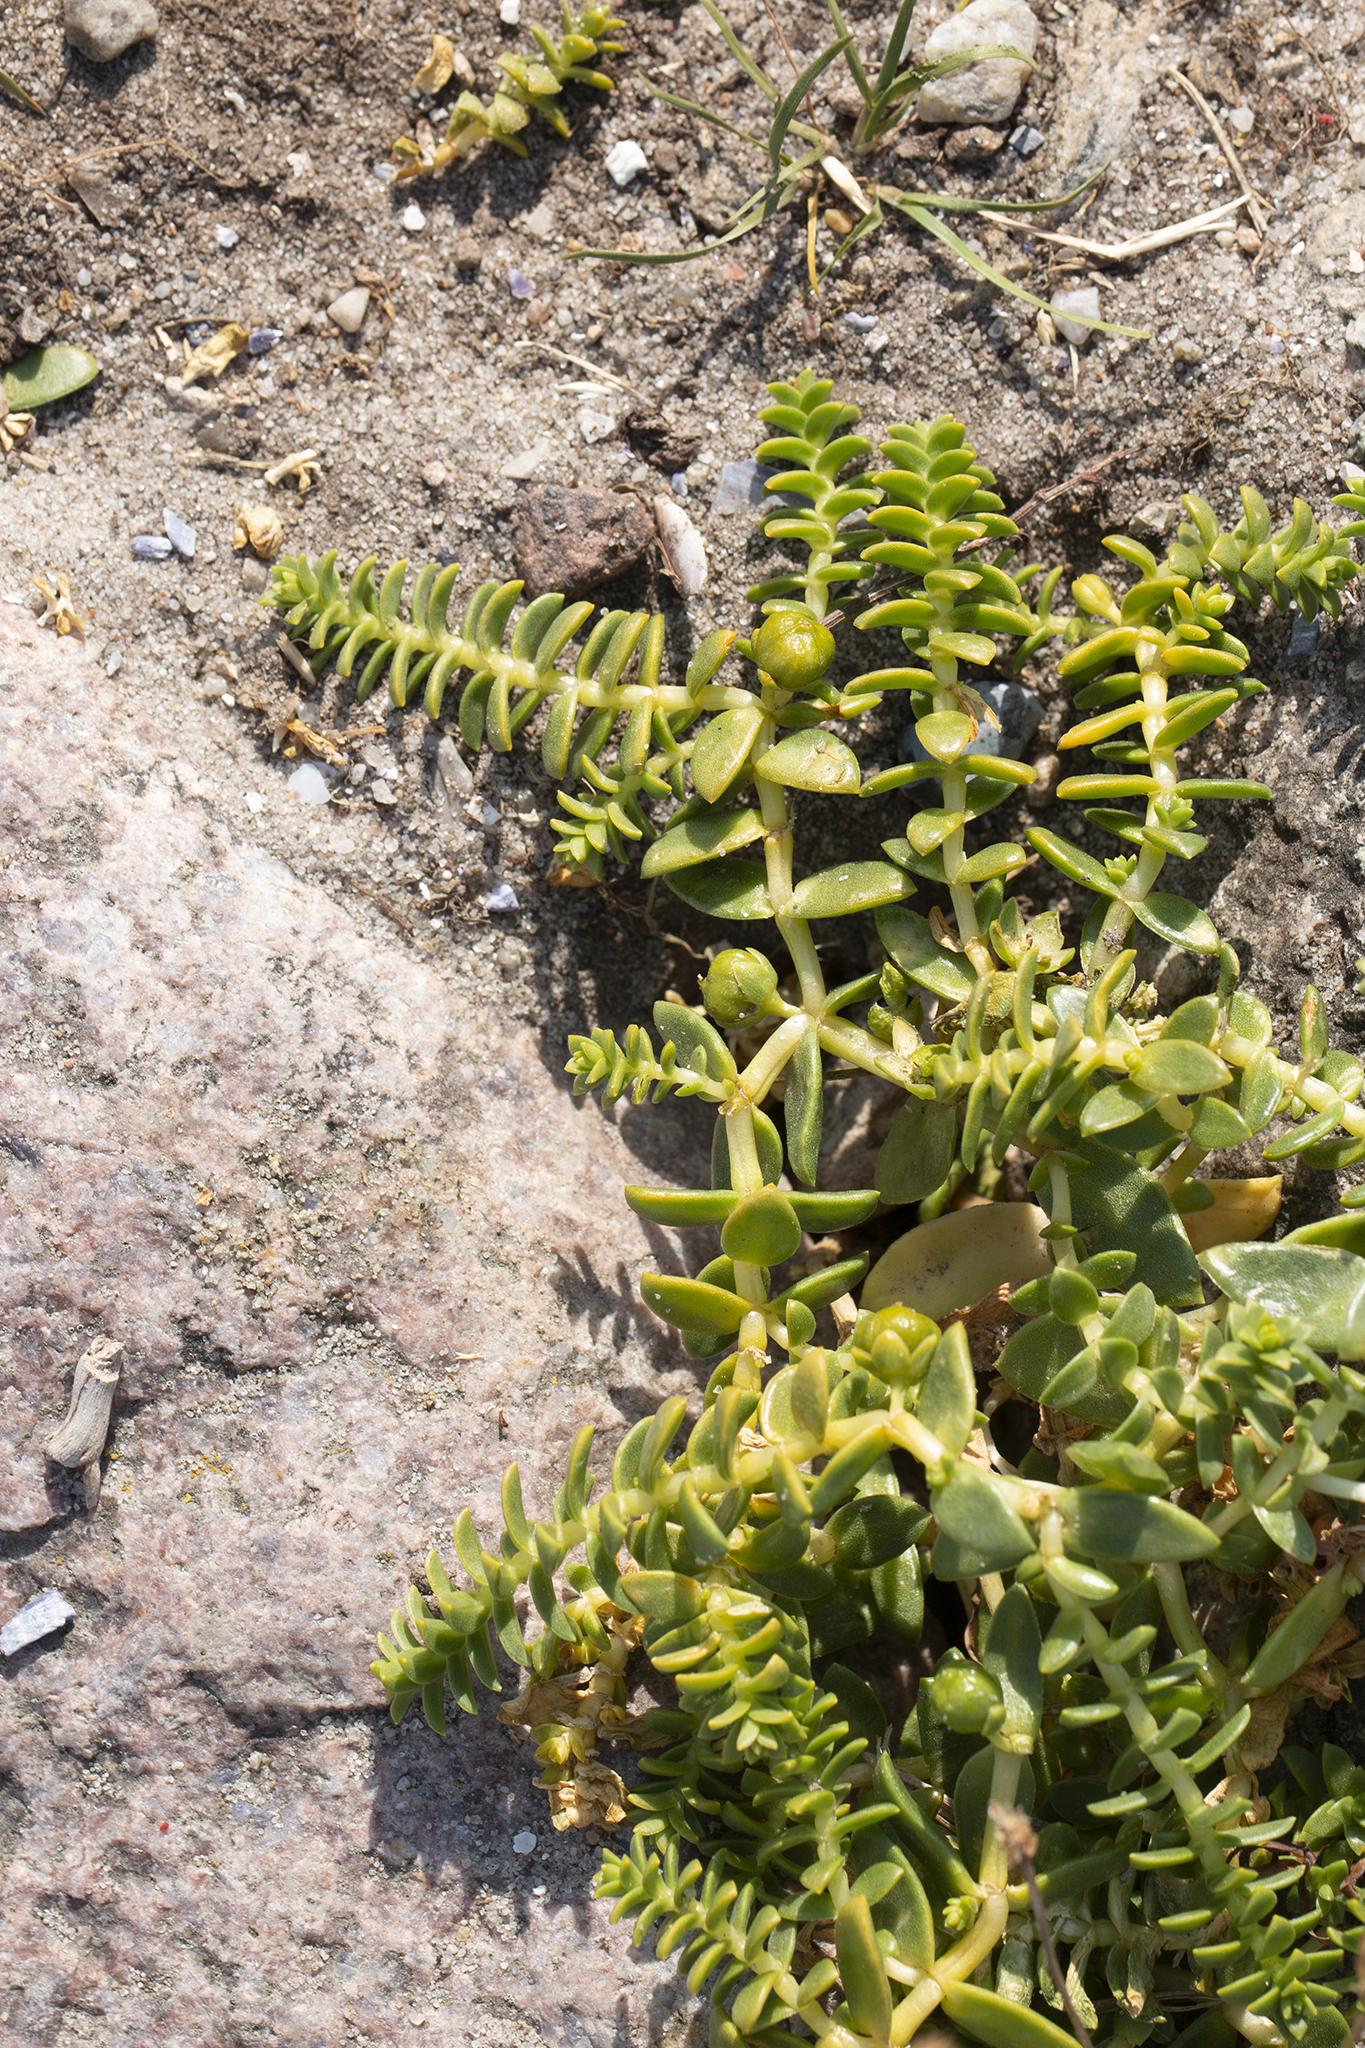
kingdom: Plantae
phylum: Tracheophyta
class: Magnoliopsida
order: Caryophyllales
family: Caryophyllaceae
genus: Honckenya
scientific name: Honckenya peploides
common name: Sea sandwort
